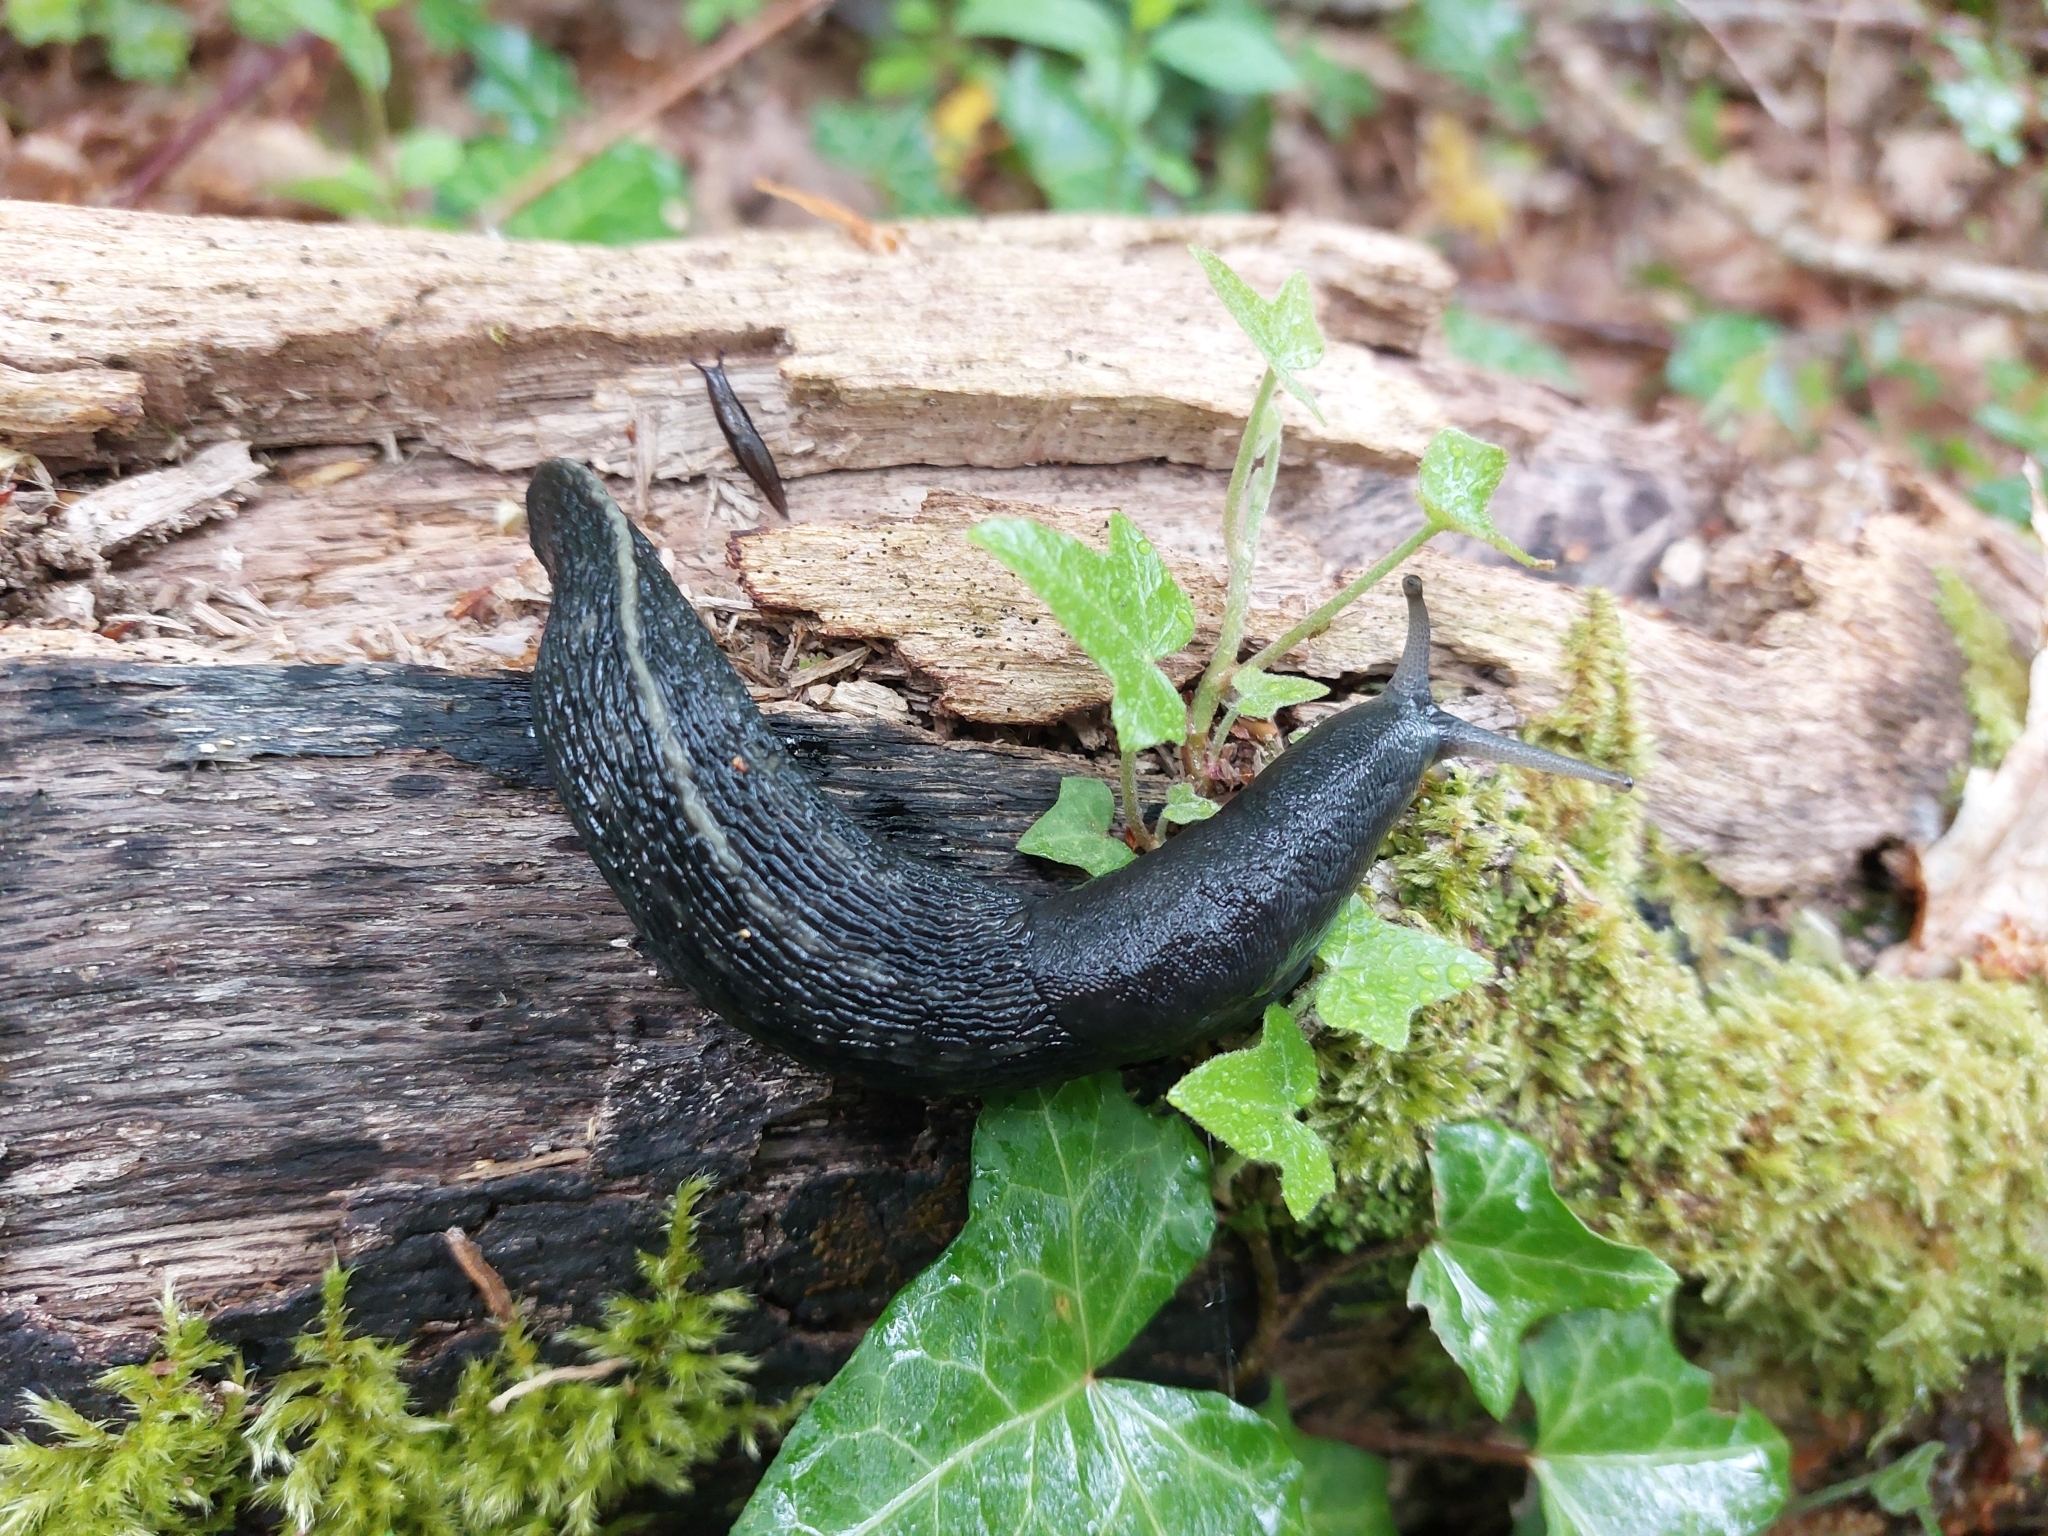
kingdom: Animalia
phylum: Mollusca
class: Gastropoda
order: Stylommatophora
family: Limacidae
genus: Limax
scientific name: Limax cinereoniger
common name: Ash-black slug
